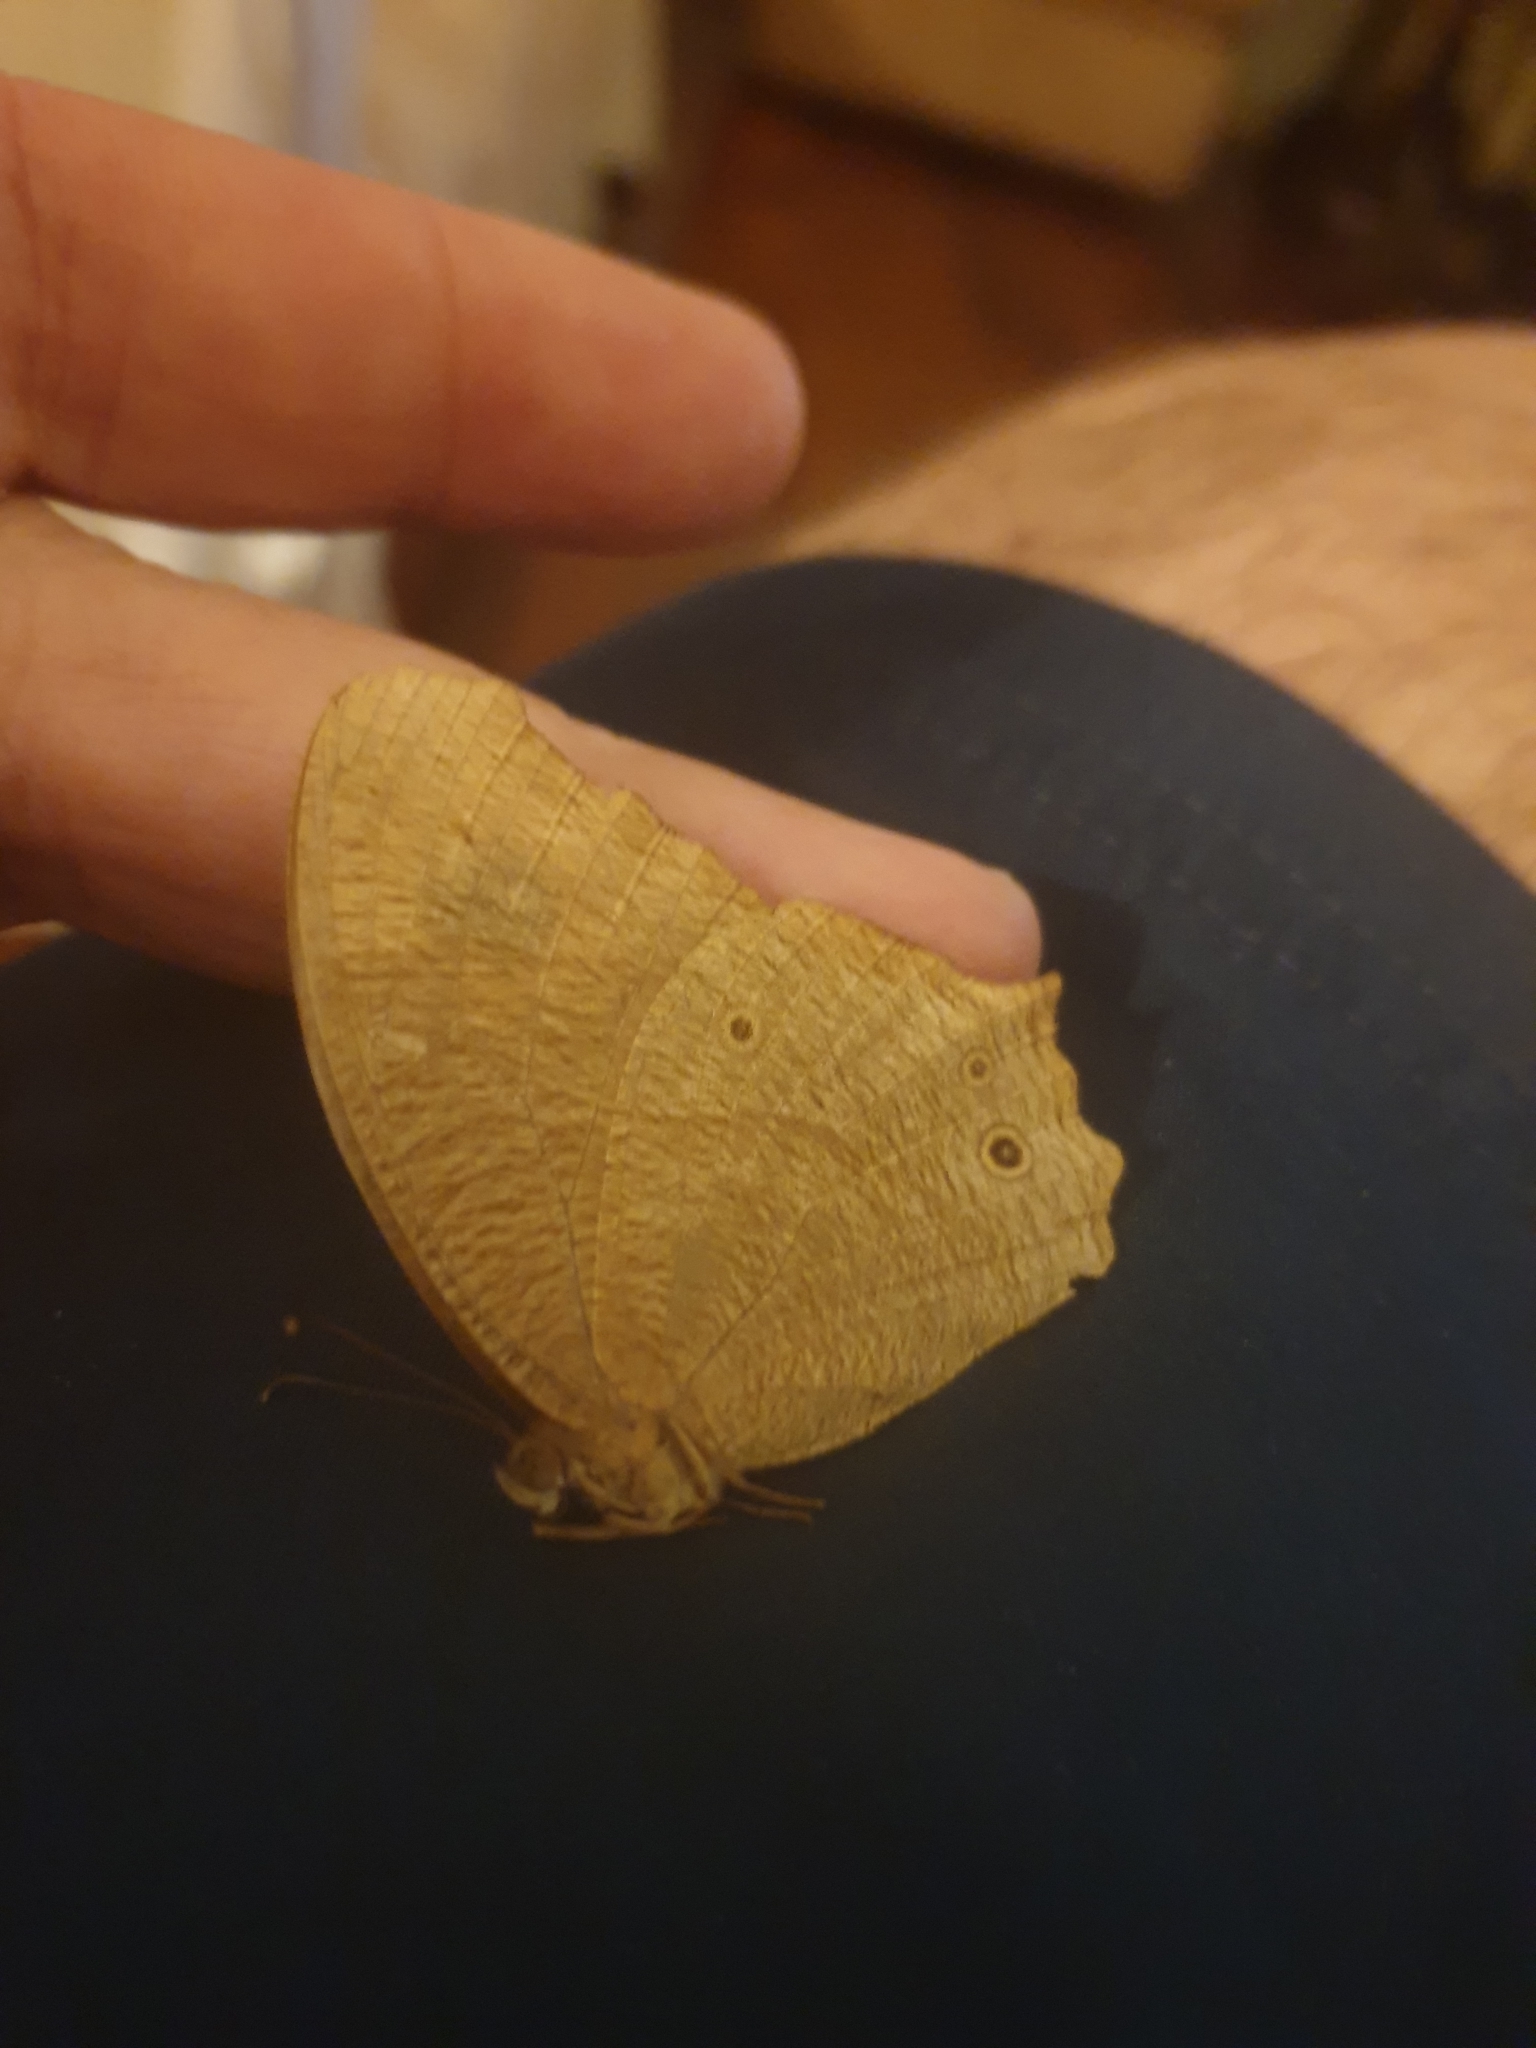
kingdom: Animalia
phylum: Arthropoda
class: Insecta
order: Lepidoptera
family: Nymphalidae
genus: Melanitis
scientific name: Melanitis leda
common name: Twilight brown
